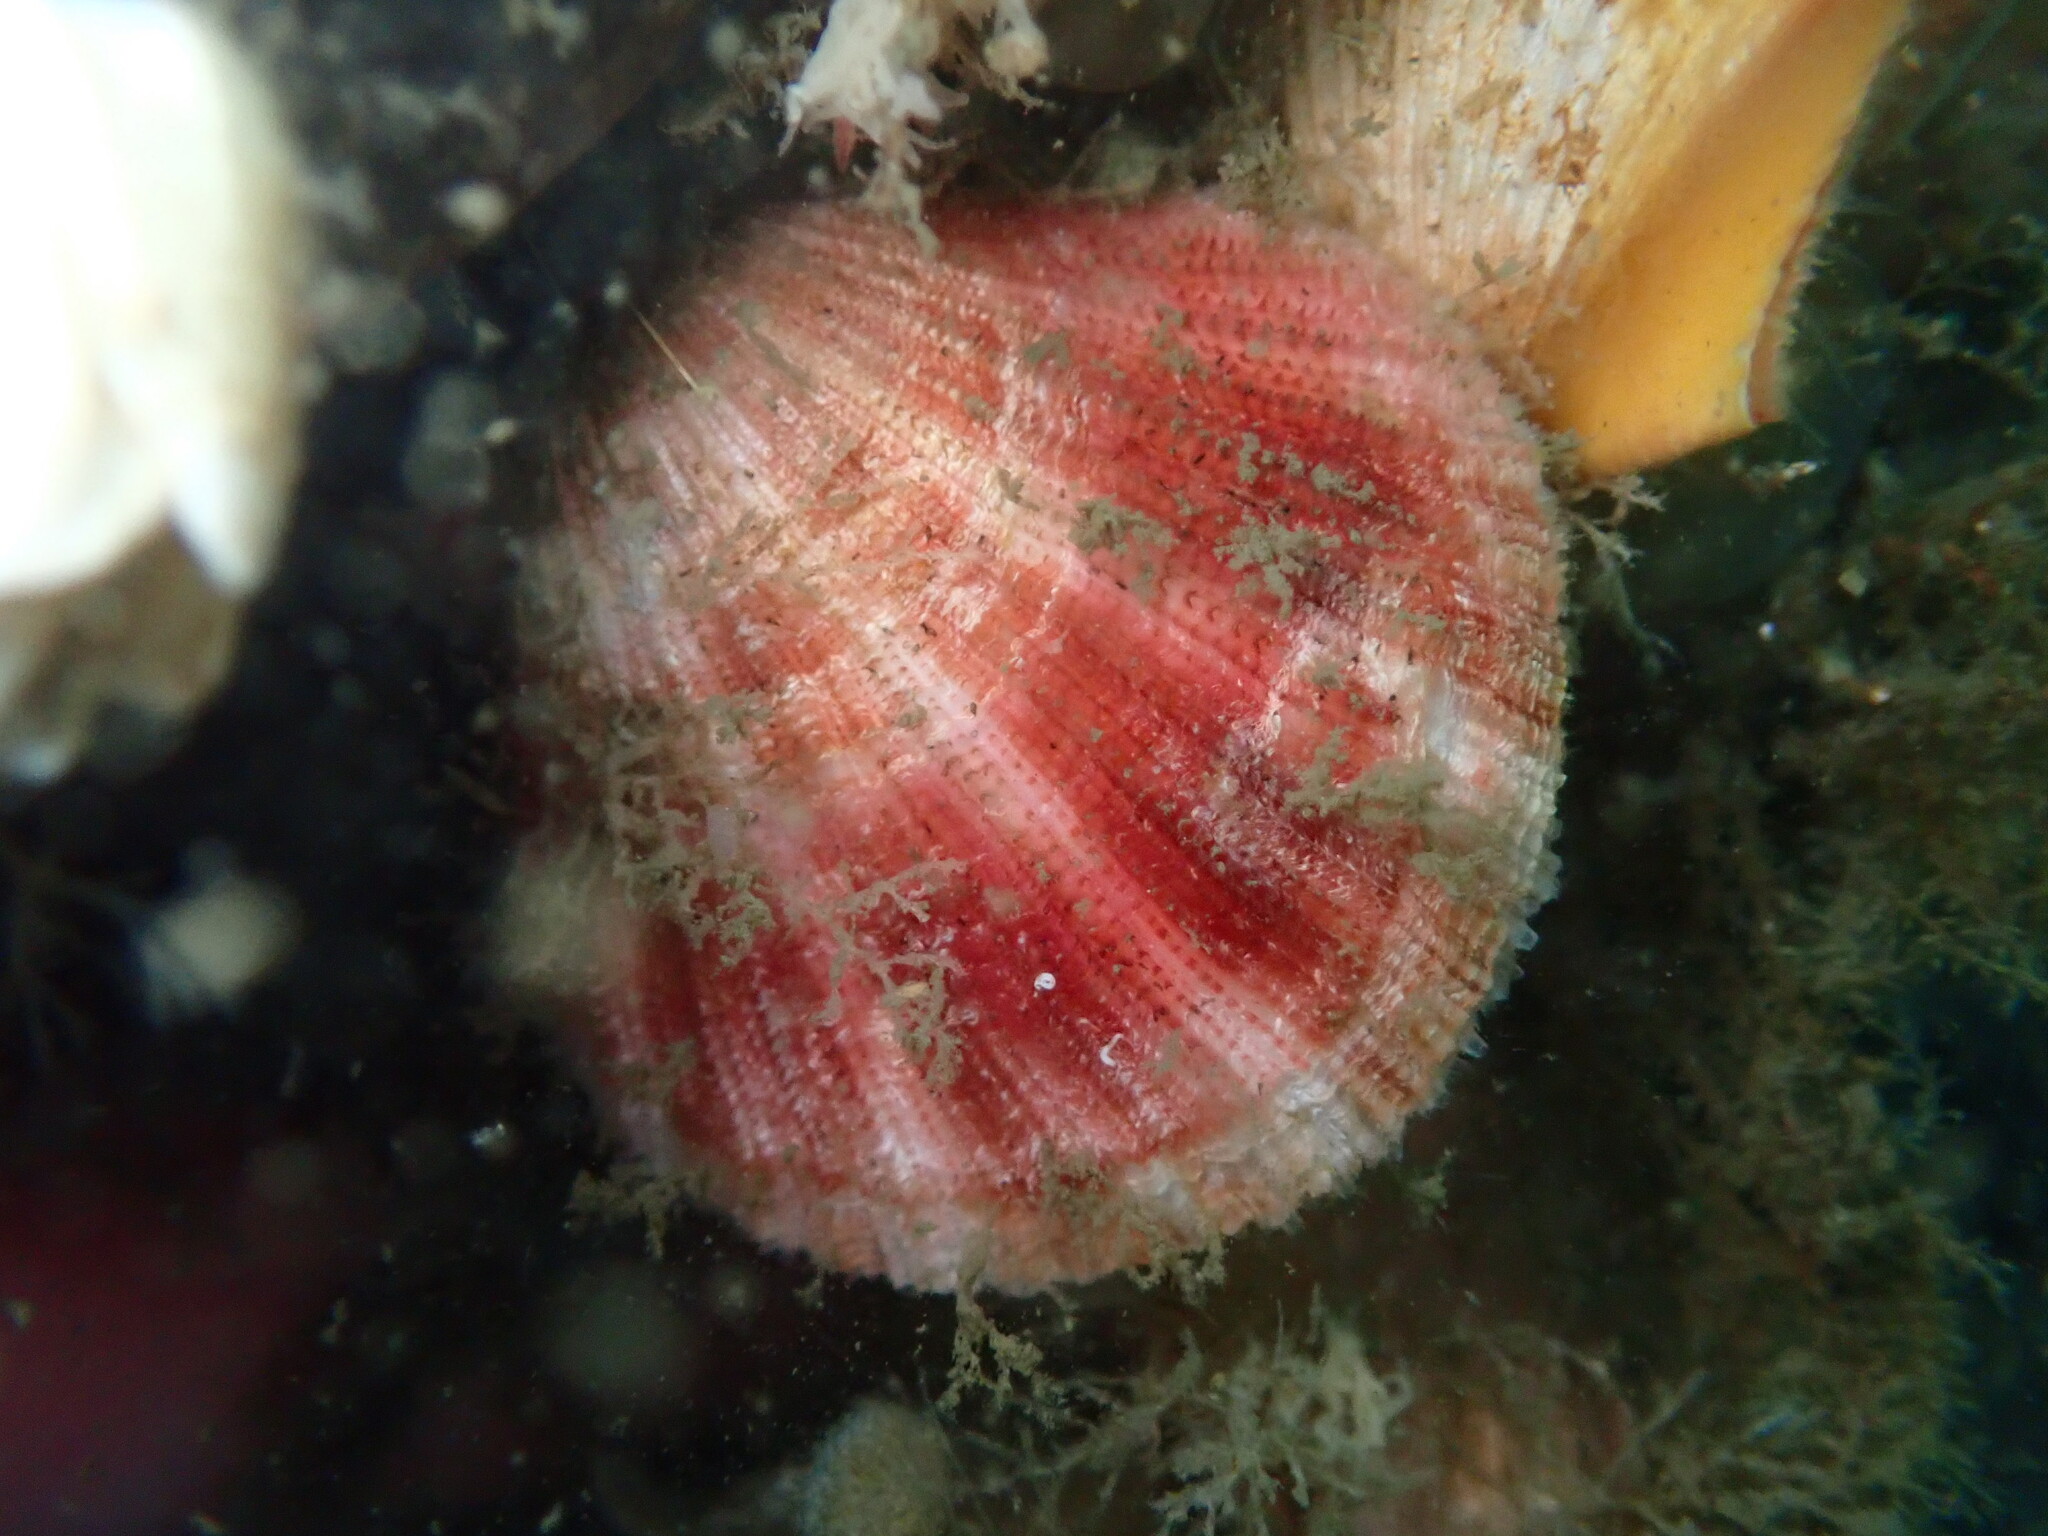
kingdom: Animalia
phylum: Mollusca
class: Bivalvia
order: Pectinida
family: Pectinidae
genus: Chlamys
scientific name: Chlamys hastata
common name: Spear scallop
